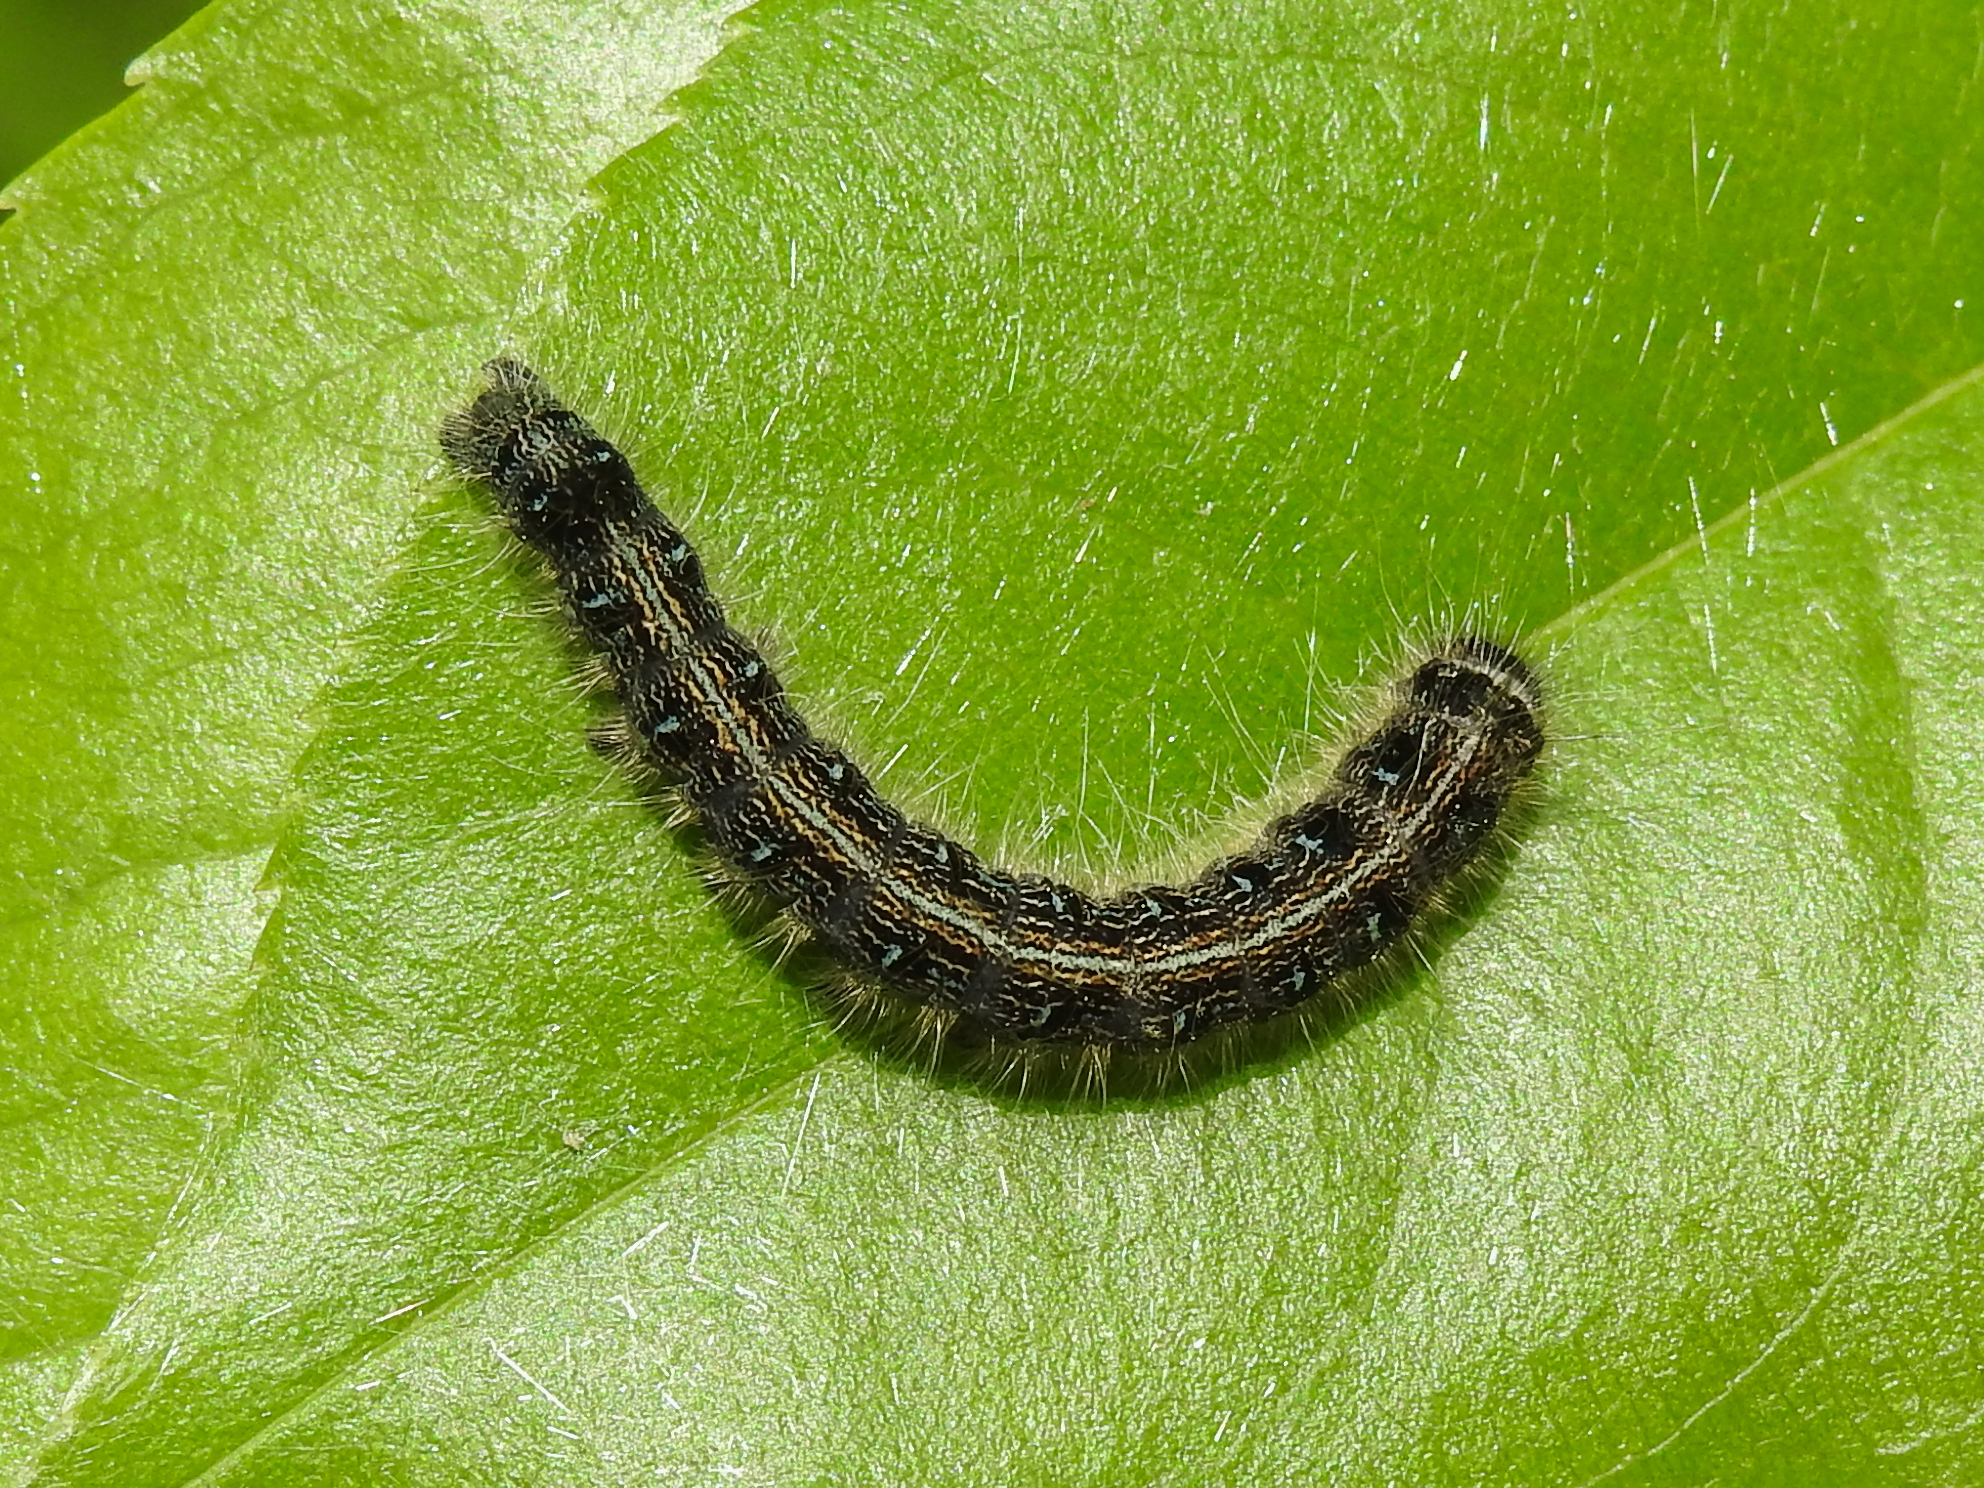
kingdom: Animalia
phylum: Arthropoda
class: Insecta
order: Lepidoptera
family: Lasiocampidae
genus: Malacosoma
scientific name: Malacosoma americana
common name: Eastern tent caterpillar moth
